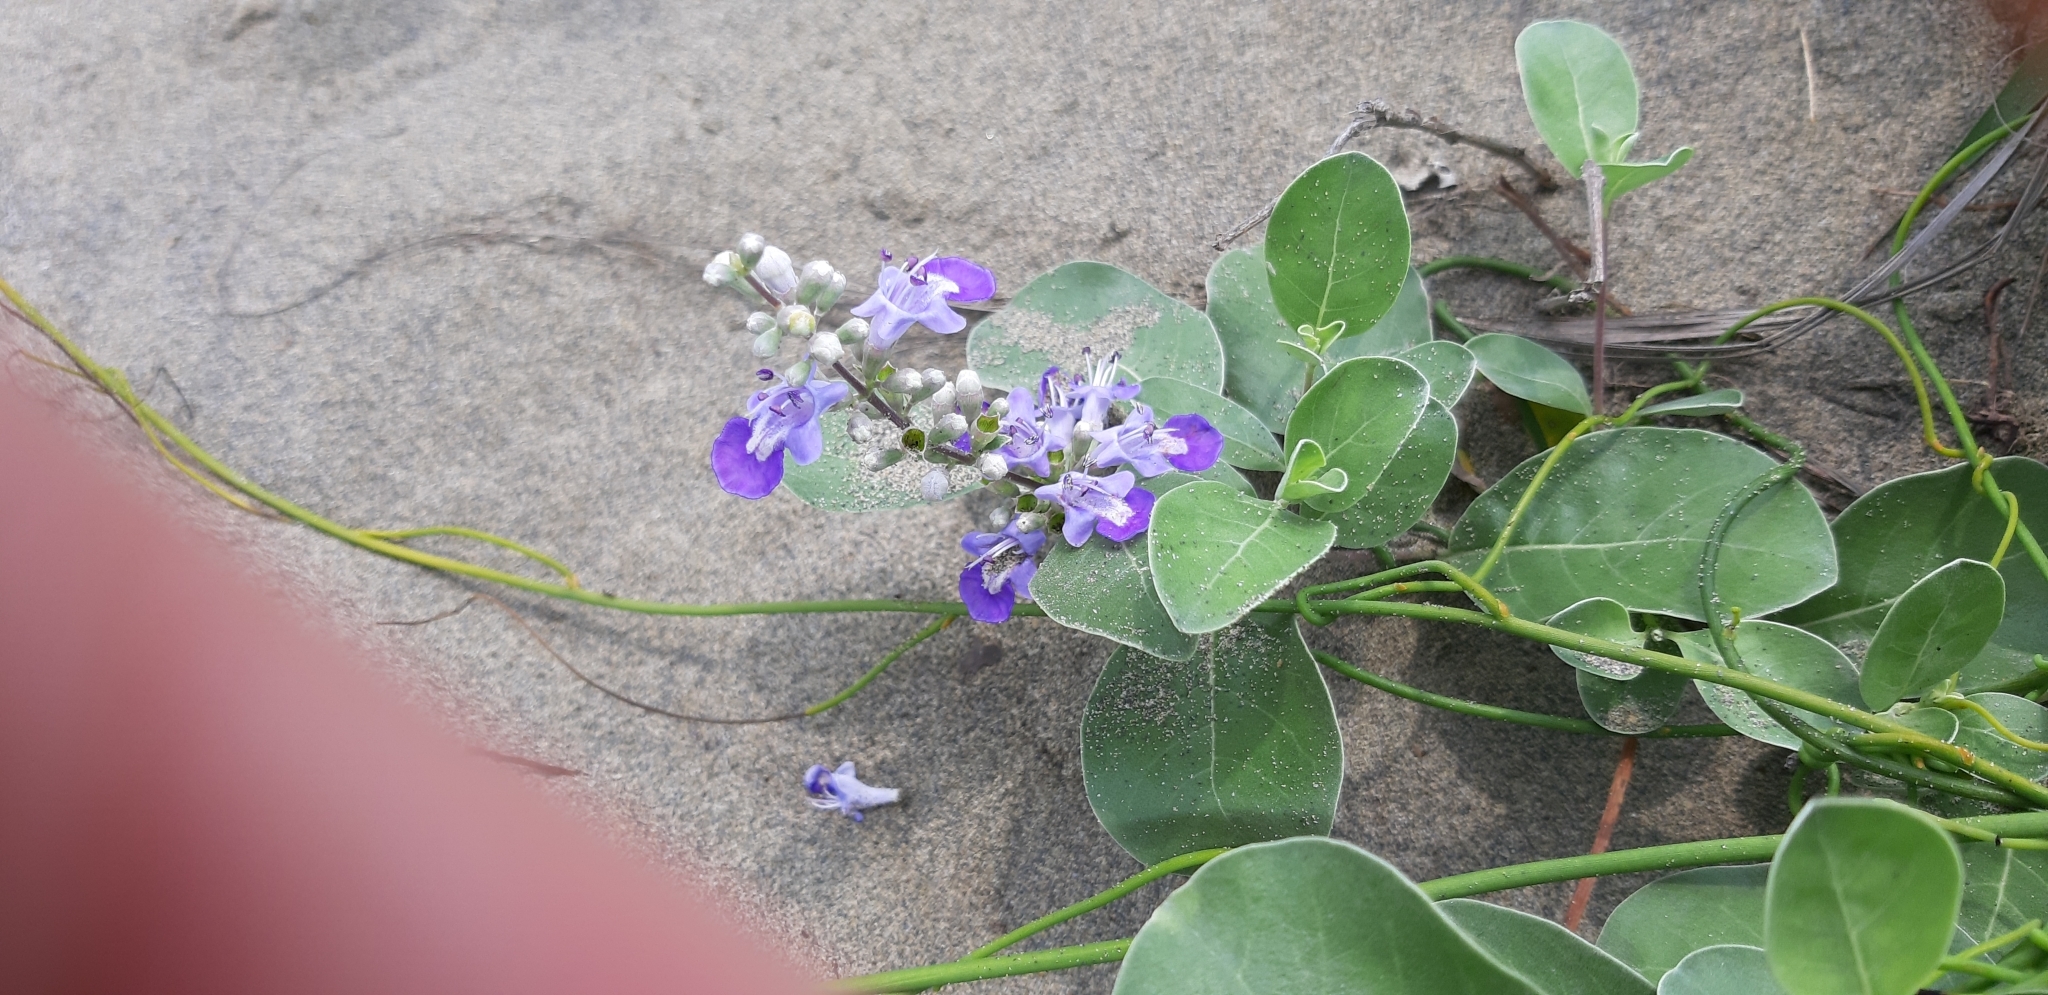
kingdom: Plantae
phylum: Tracheophyta
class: Magnoliopsida
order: Lamiales
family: Lamiaceae
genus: Vitex
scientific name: Vitex rotundifolia
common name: Beach vitex
